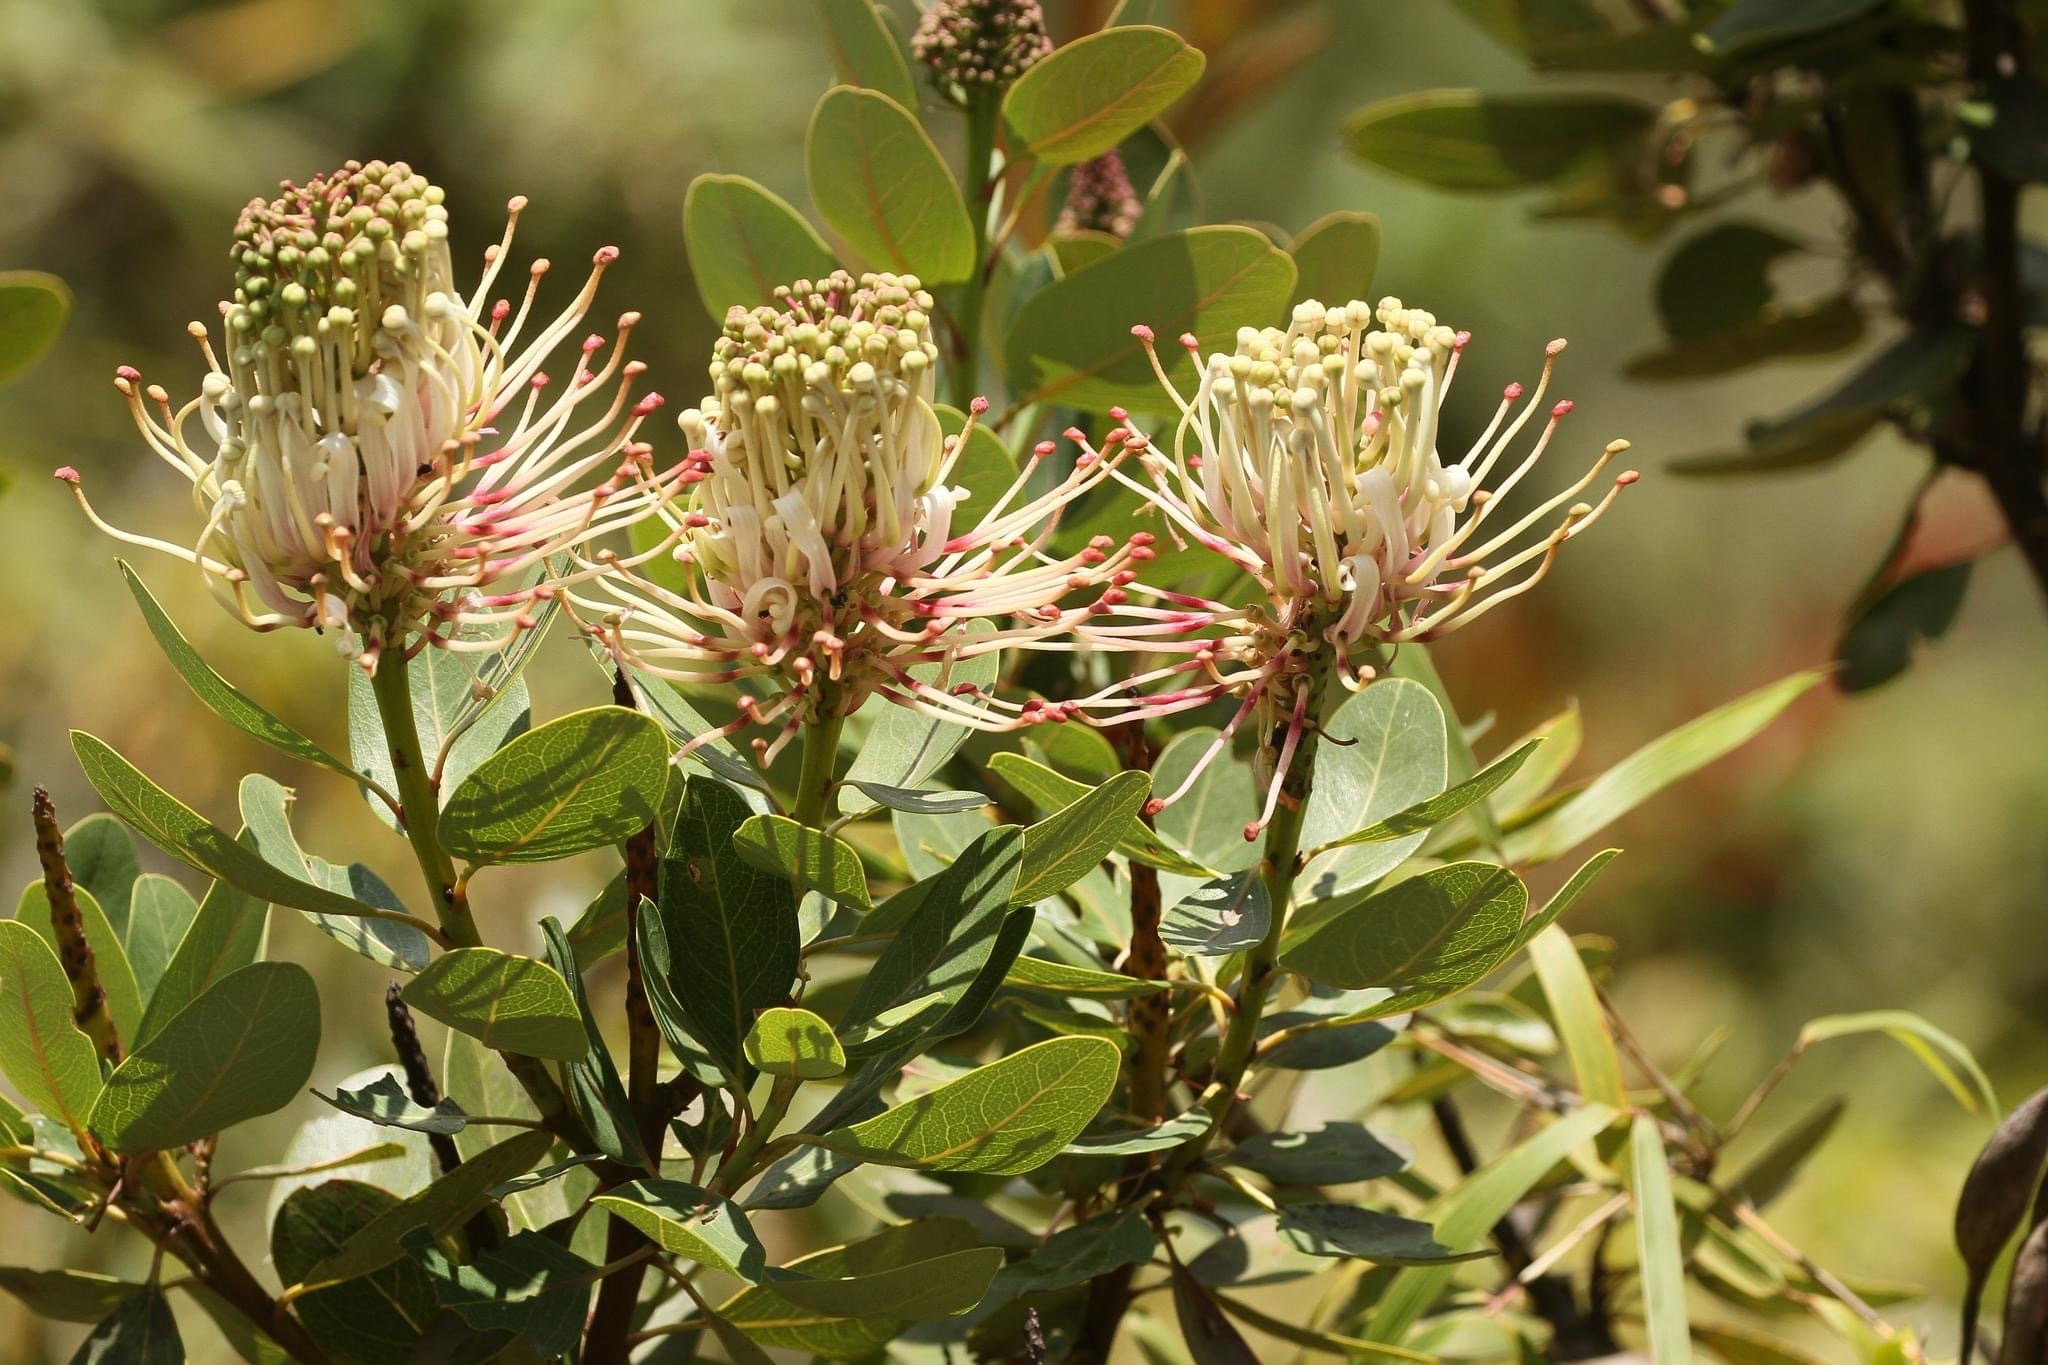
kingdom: Plantae
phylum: Tracheophyta
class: Magnoliopsida
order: Proteales
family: Proteaceae
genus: Oreocallis
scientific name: Oreocallis grandiflora
